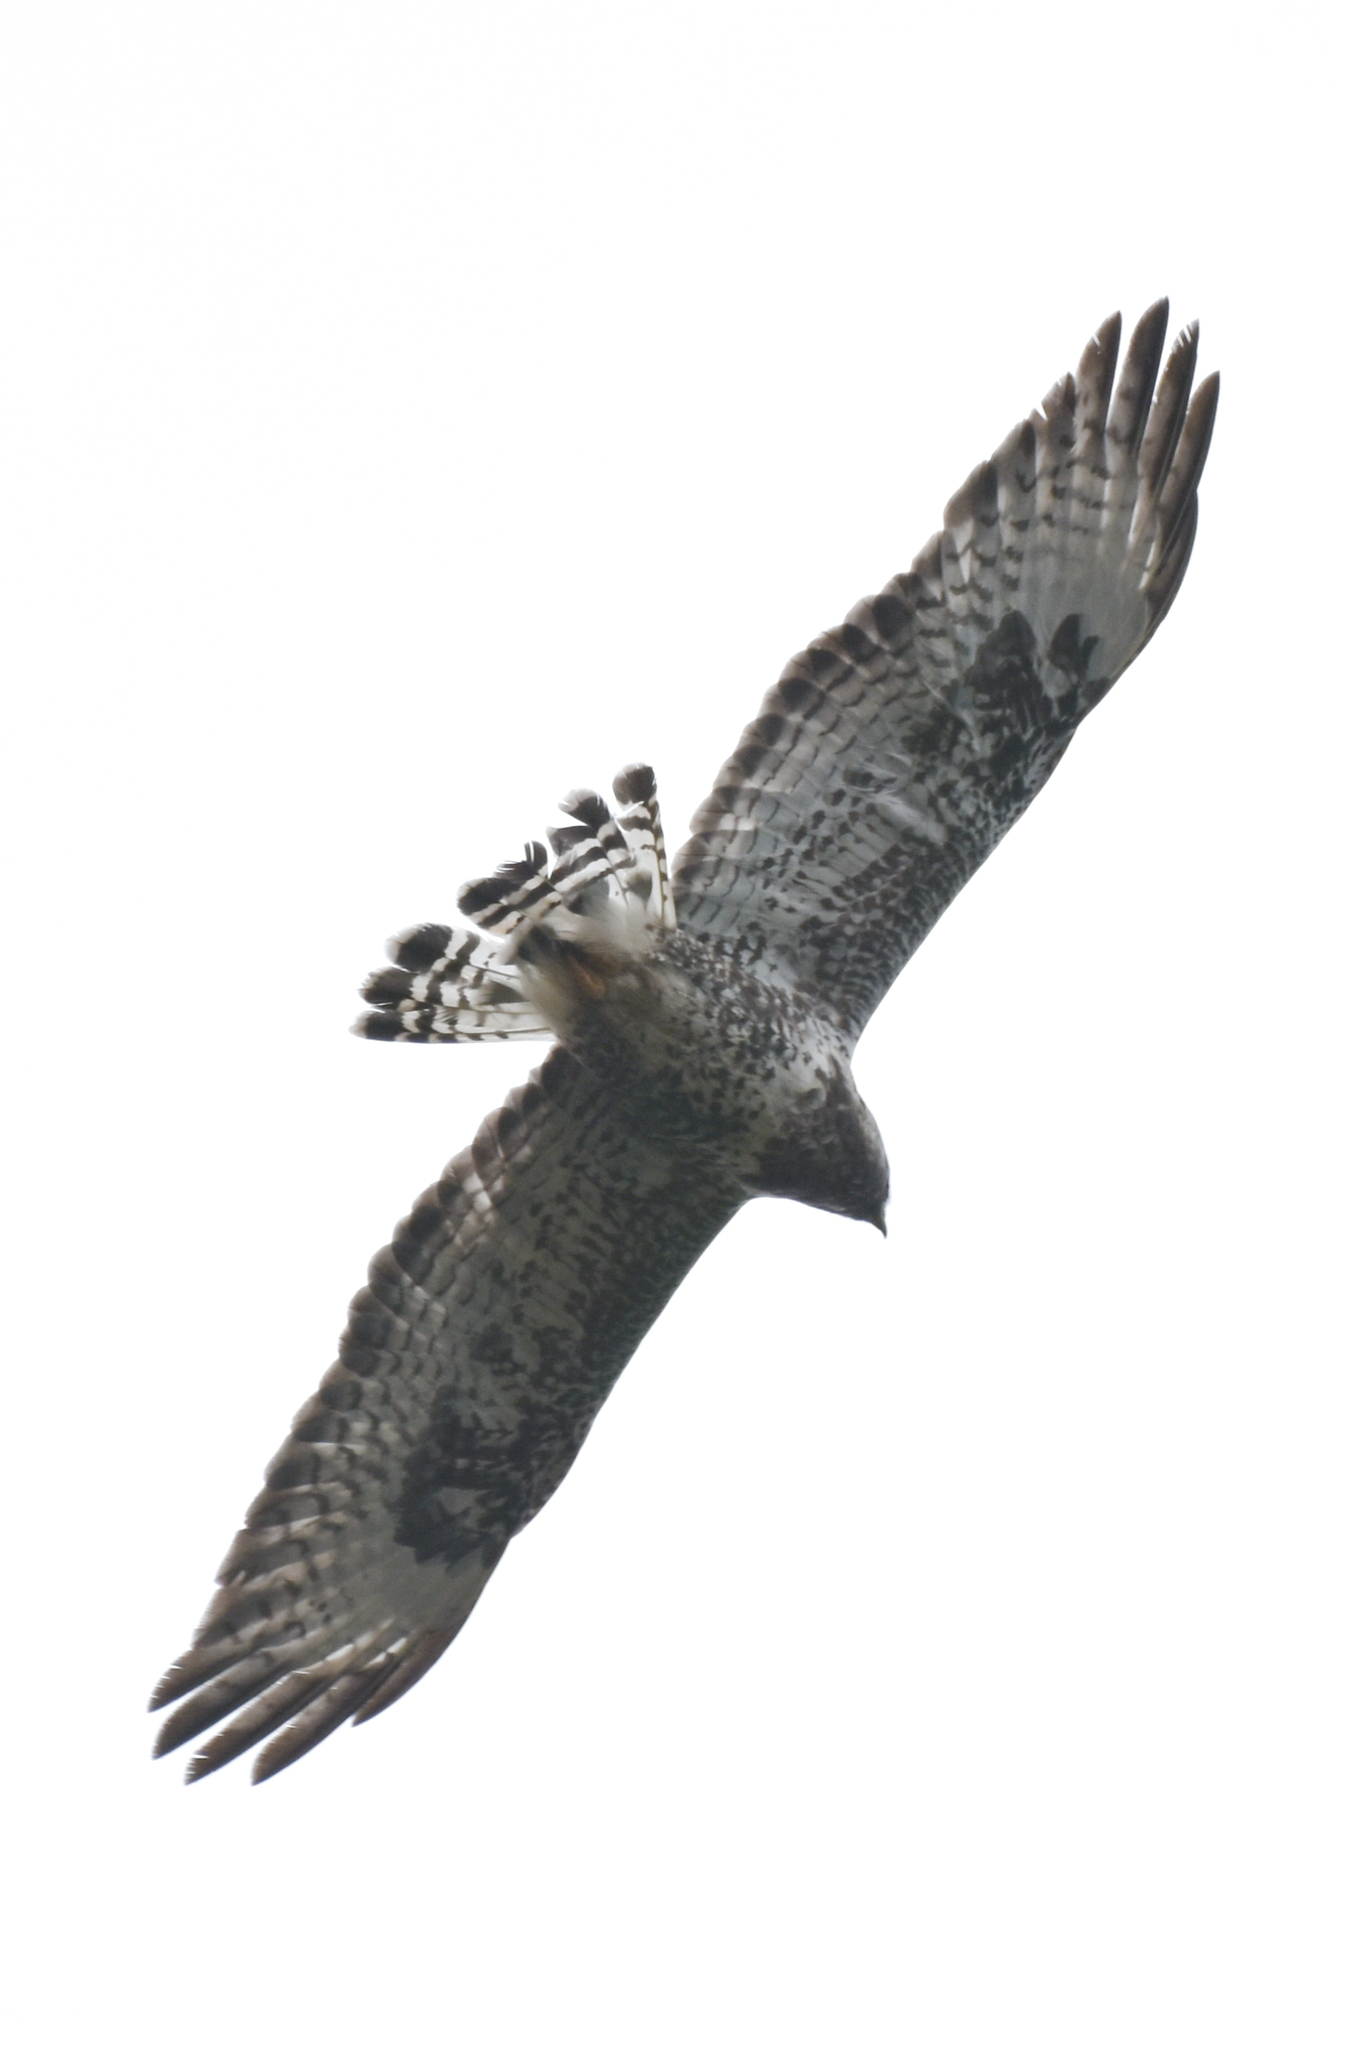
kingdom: Animalia
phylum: Chordata
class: Aves
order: Accipitriformes
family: Accipitridae
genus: Buteo
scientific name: Buteo lagopus
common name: Rough-legged buzzard
